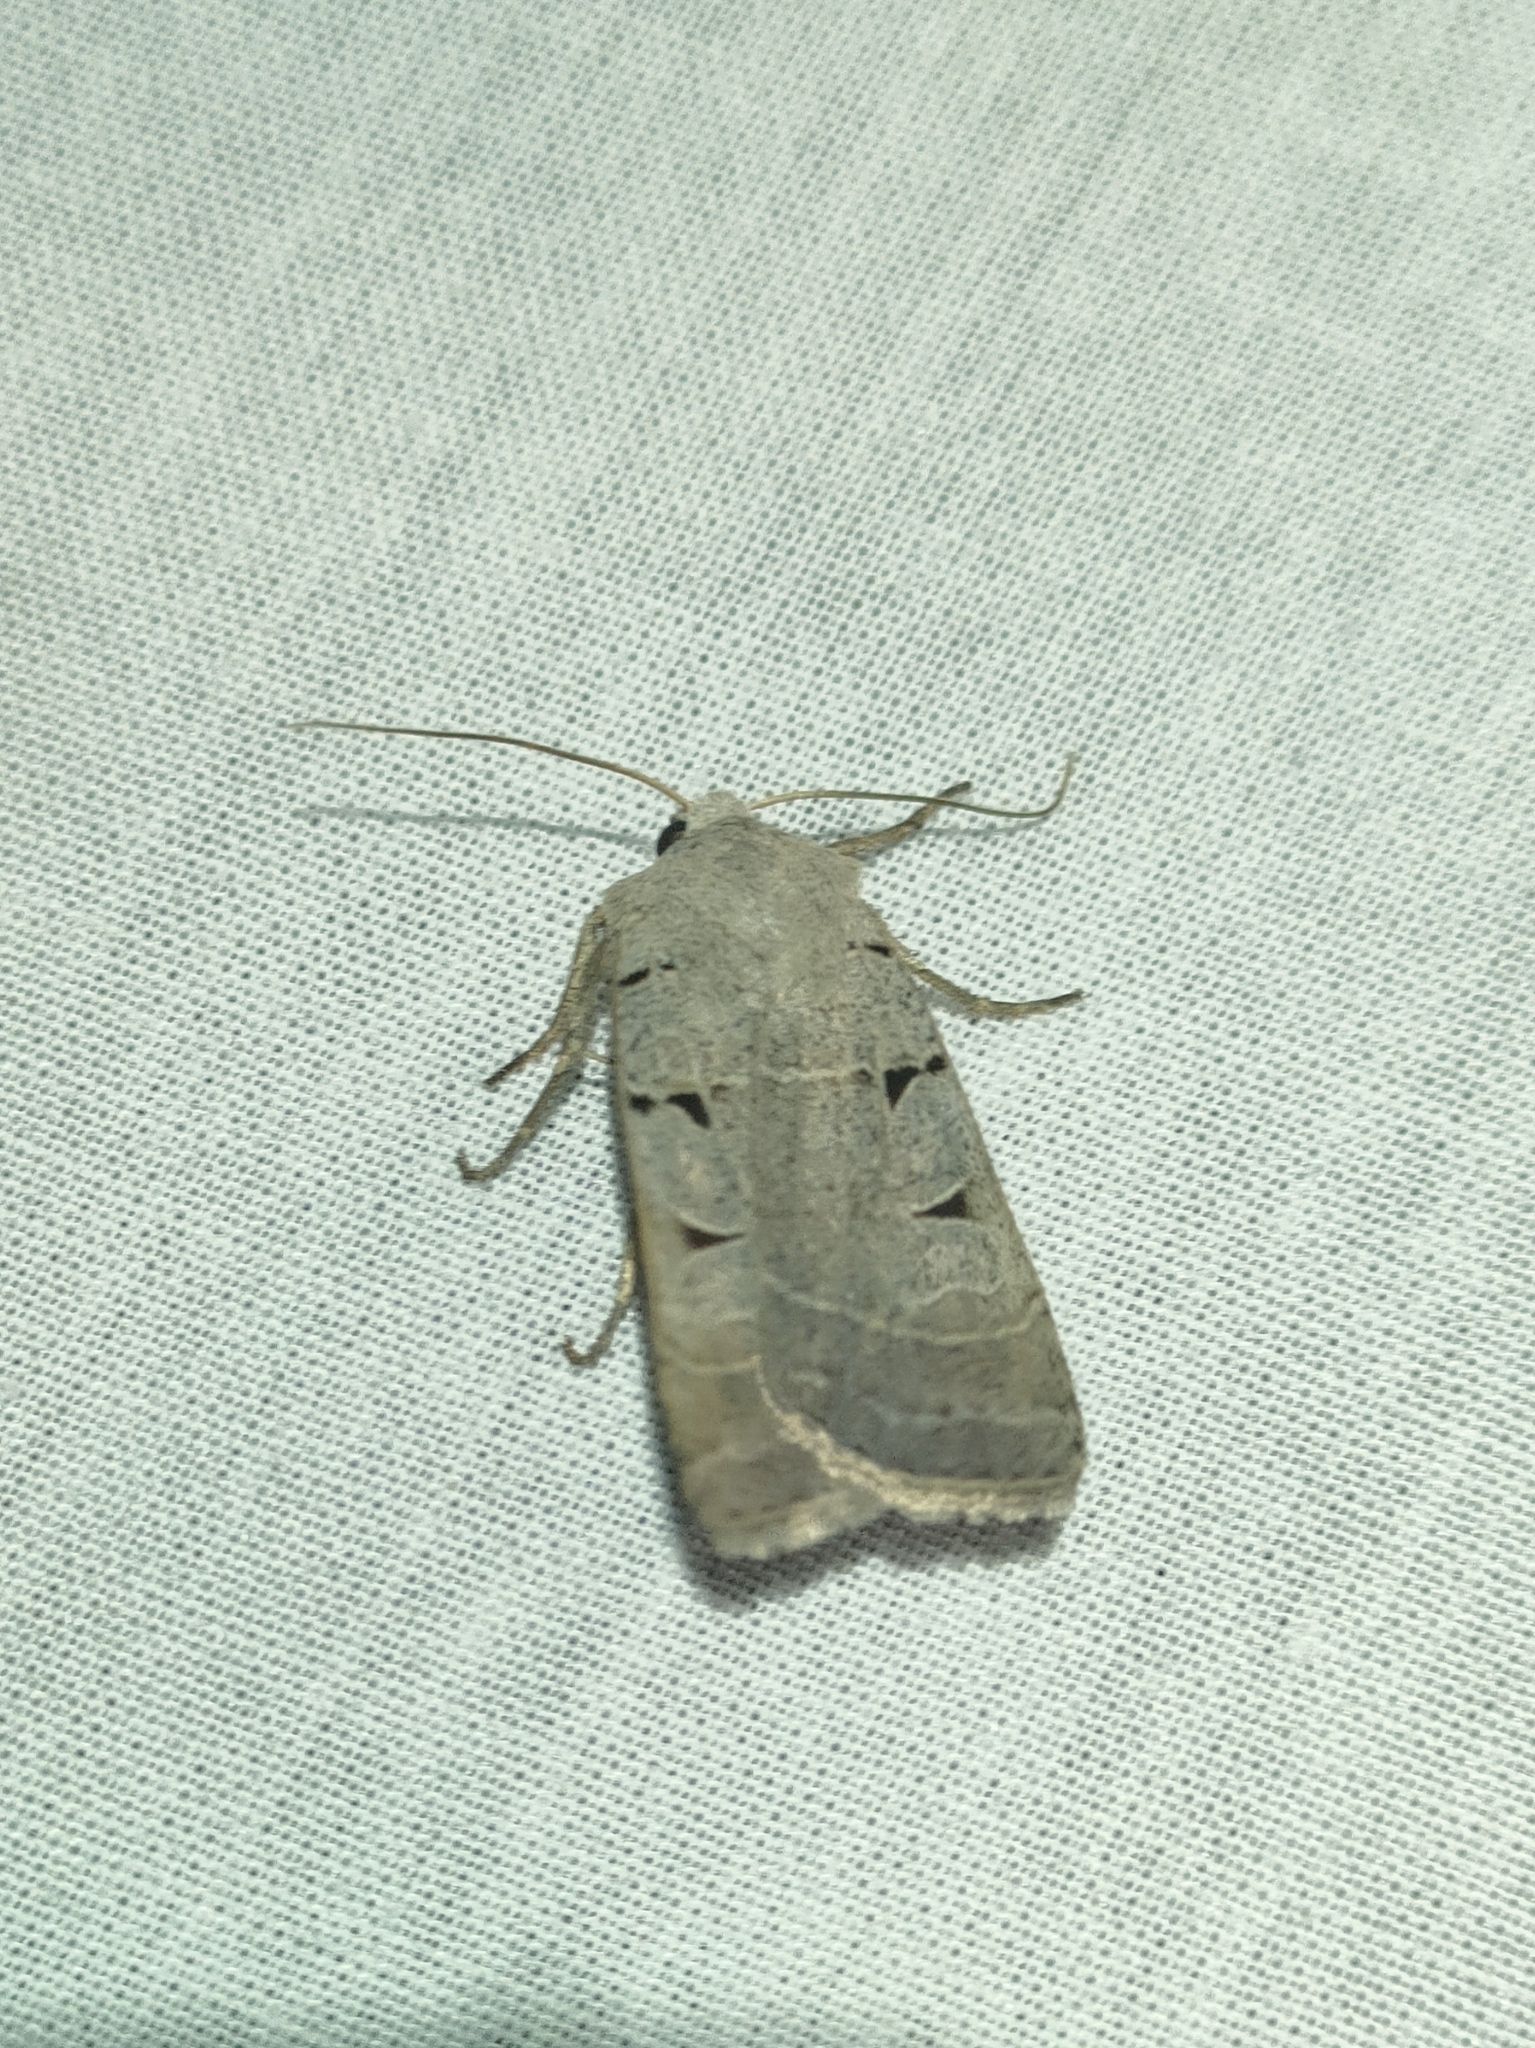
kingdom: Animalia
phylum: Arthropoda
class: Insecta
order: Lepidoptera
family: Noctuidae
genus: Eugnorisma
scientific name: Eugnorisma glareosa
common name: Autumnal rustic
